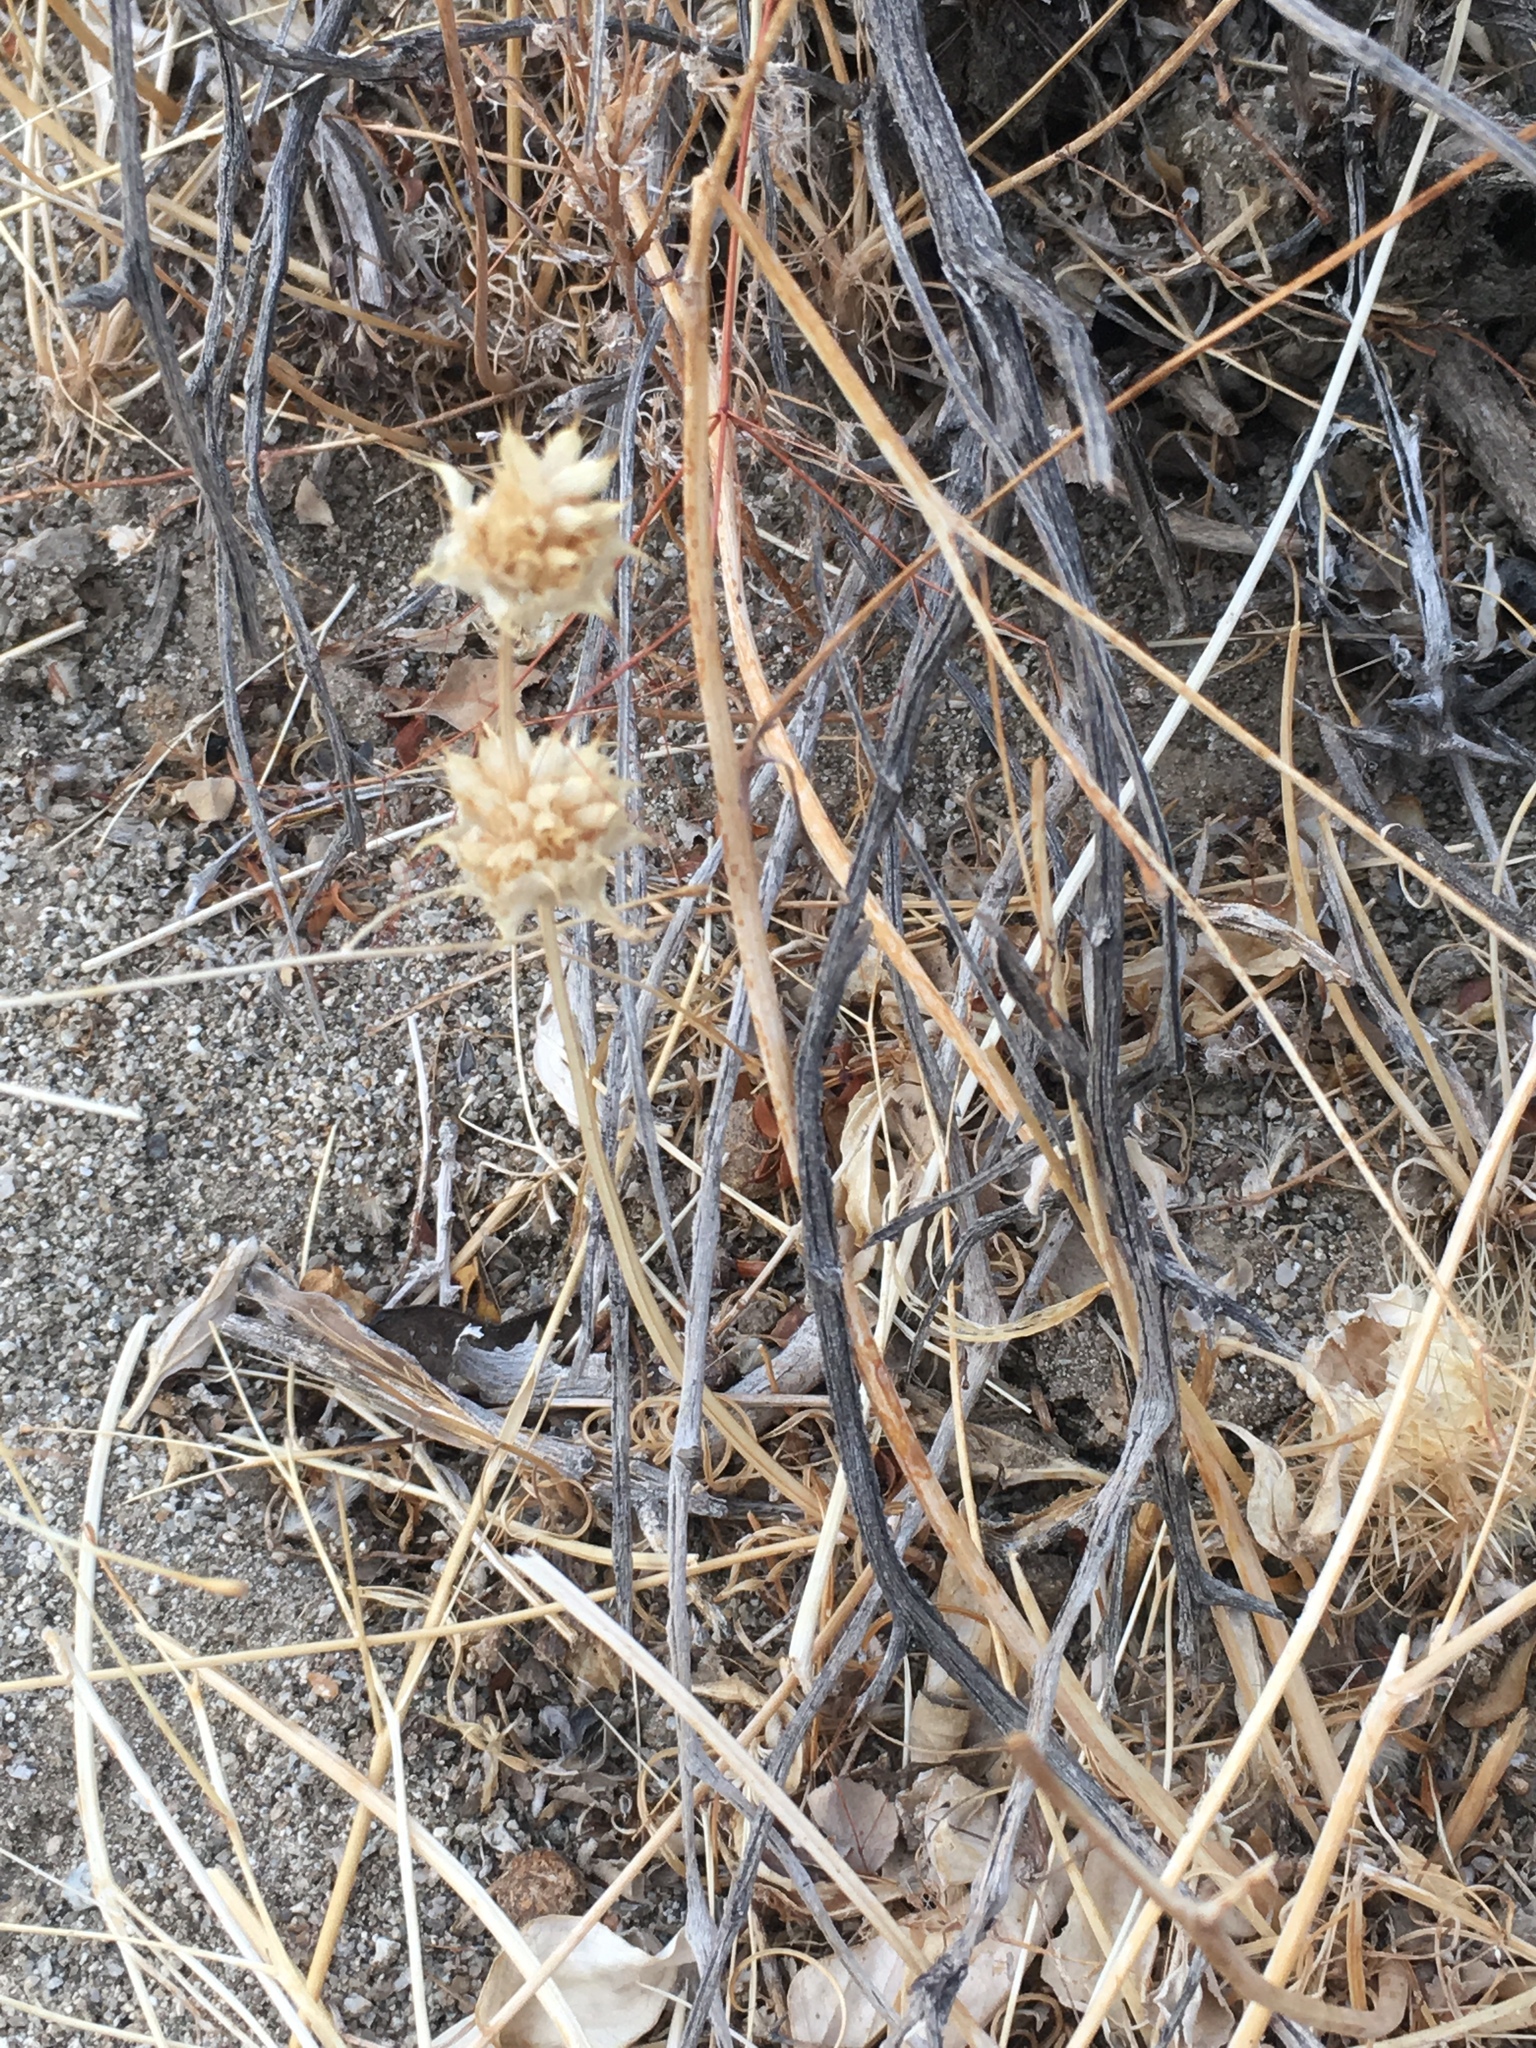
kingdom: Plantae
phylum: Tracheophyta
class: Magnoliopsida
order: Lamiales
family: Lamiaceae
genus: Salvia
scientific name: Salvia columbariae
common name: Chia
